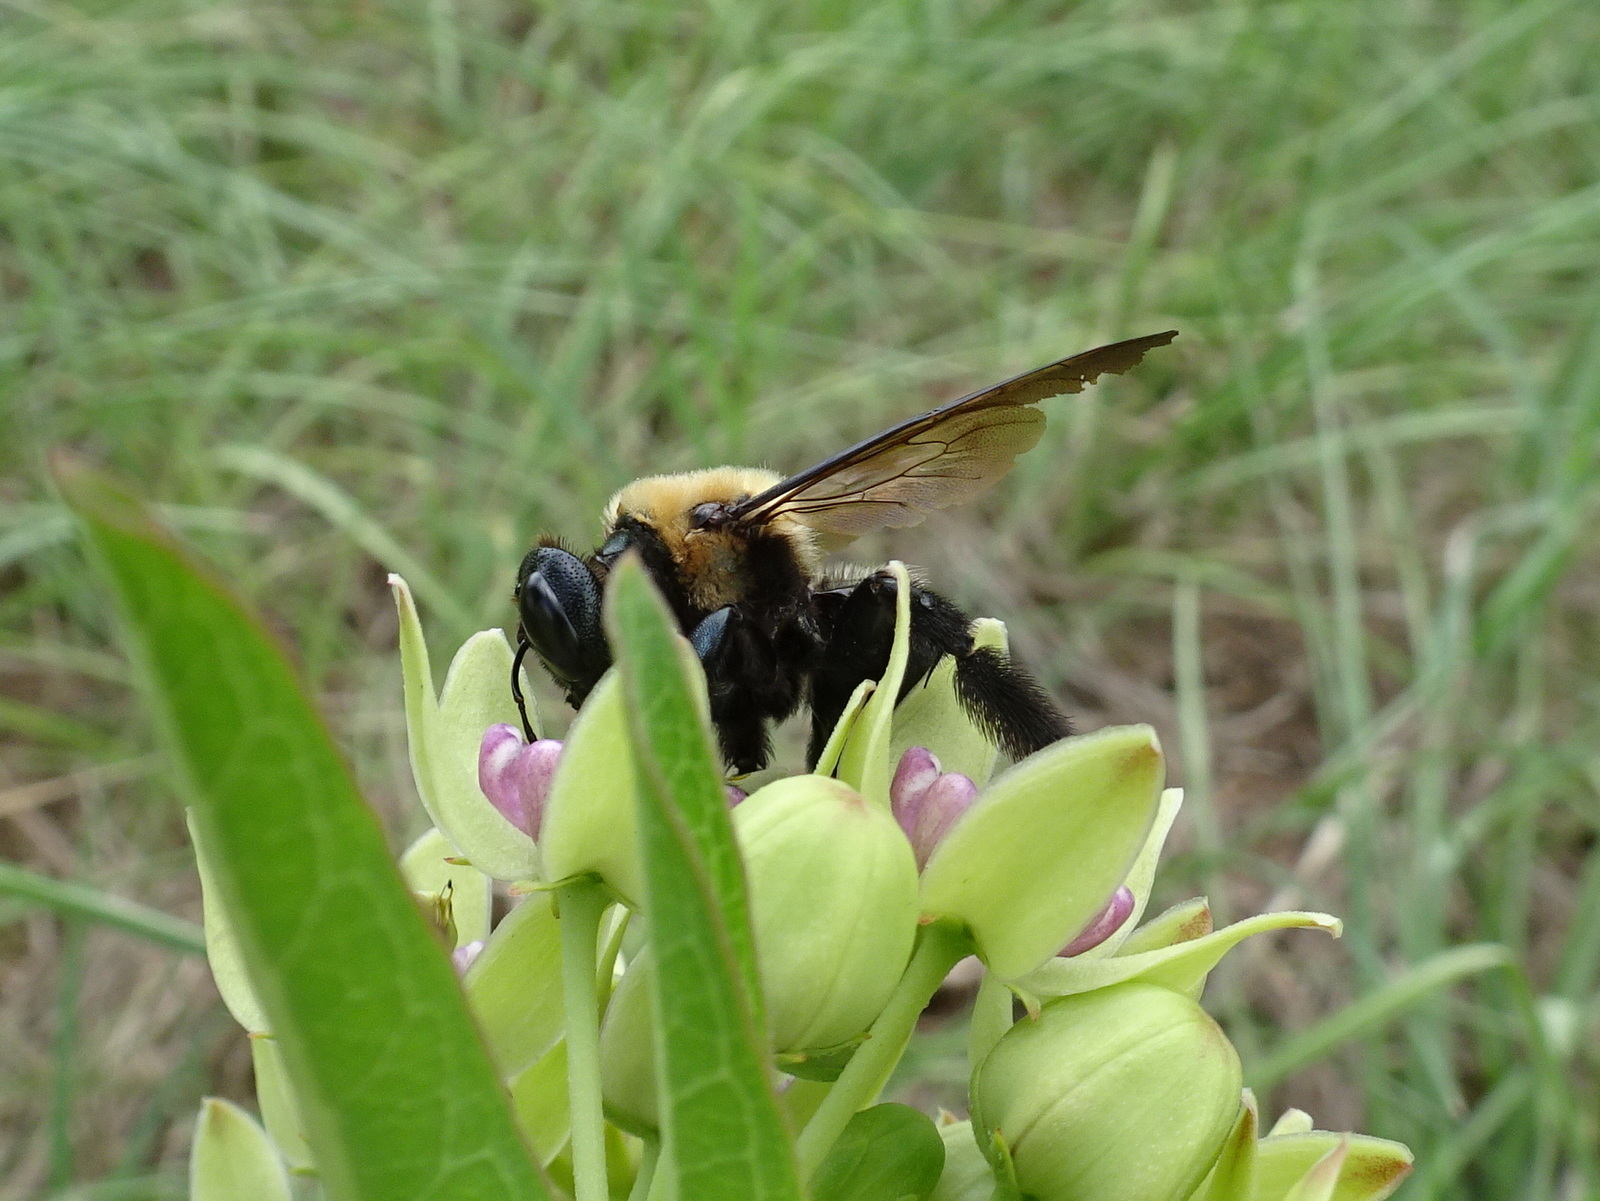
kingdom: Animalia
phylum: Arthropoda
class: Insecta
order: Hymenoptera
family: Apidae
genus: Xylocopa
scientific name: Xylocopa virginica
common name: Carpenter bee
